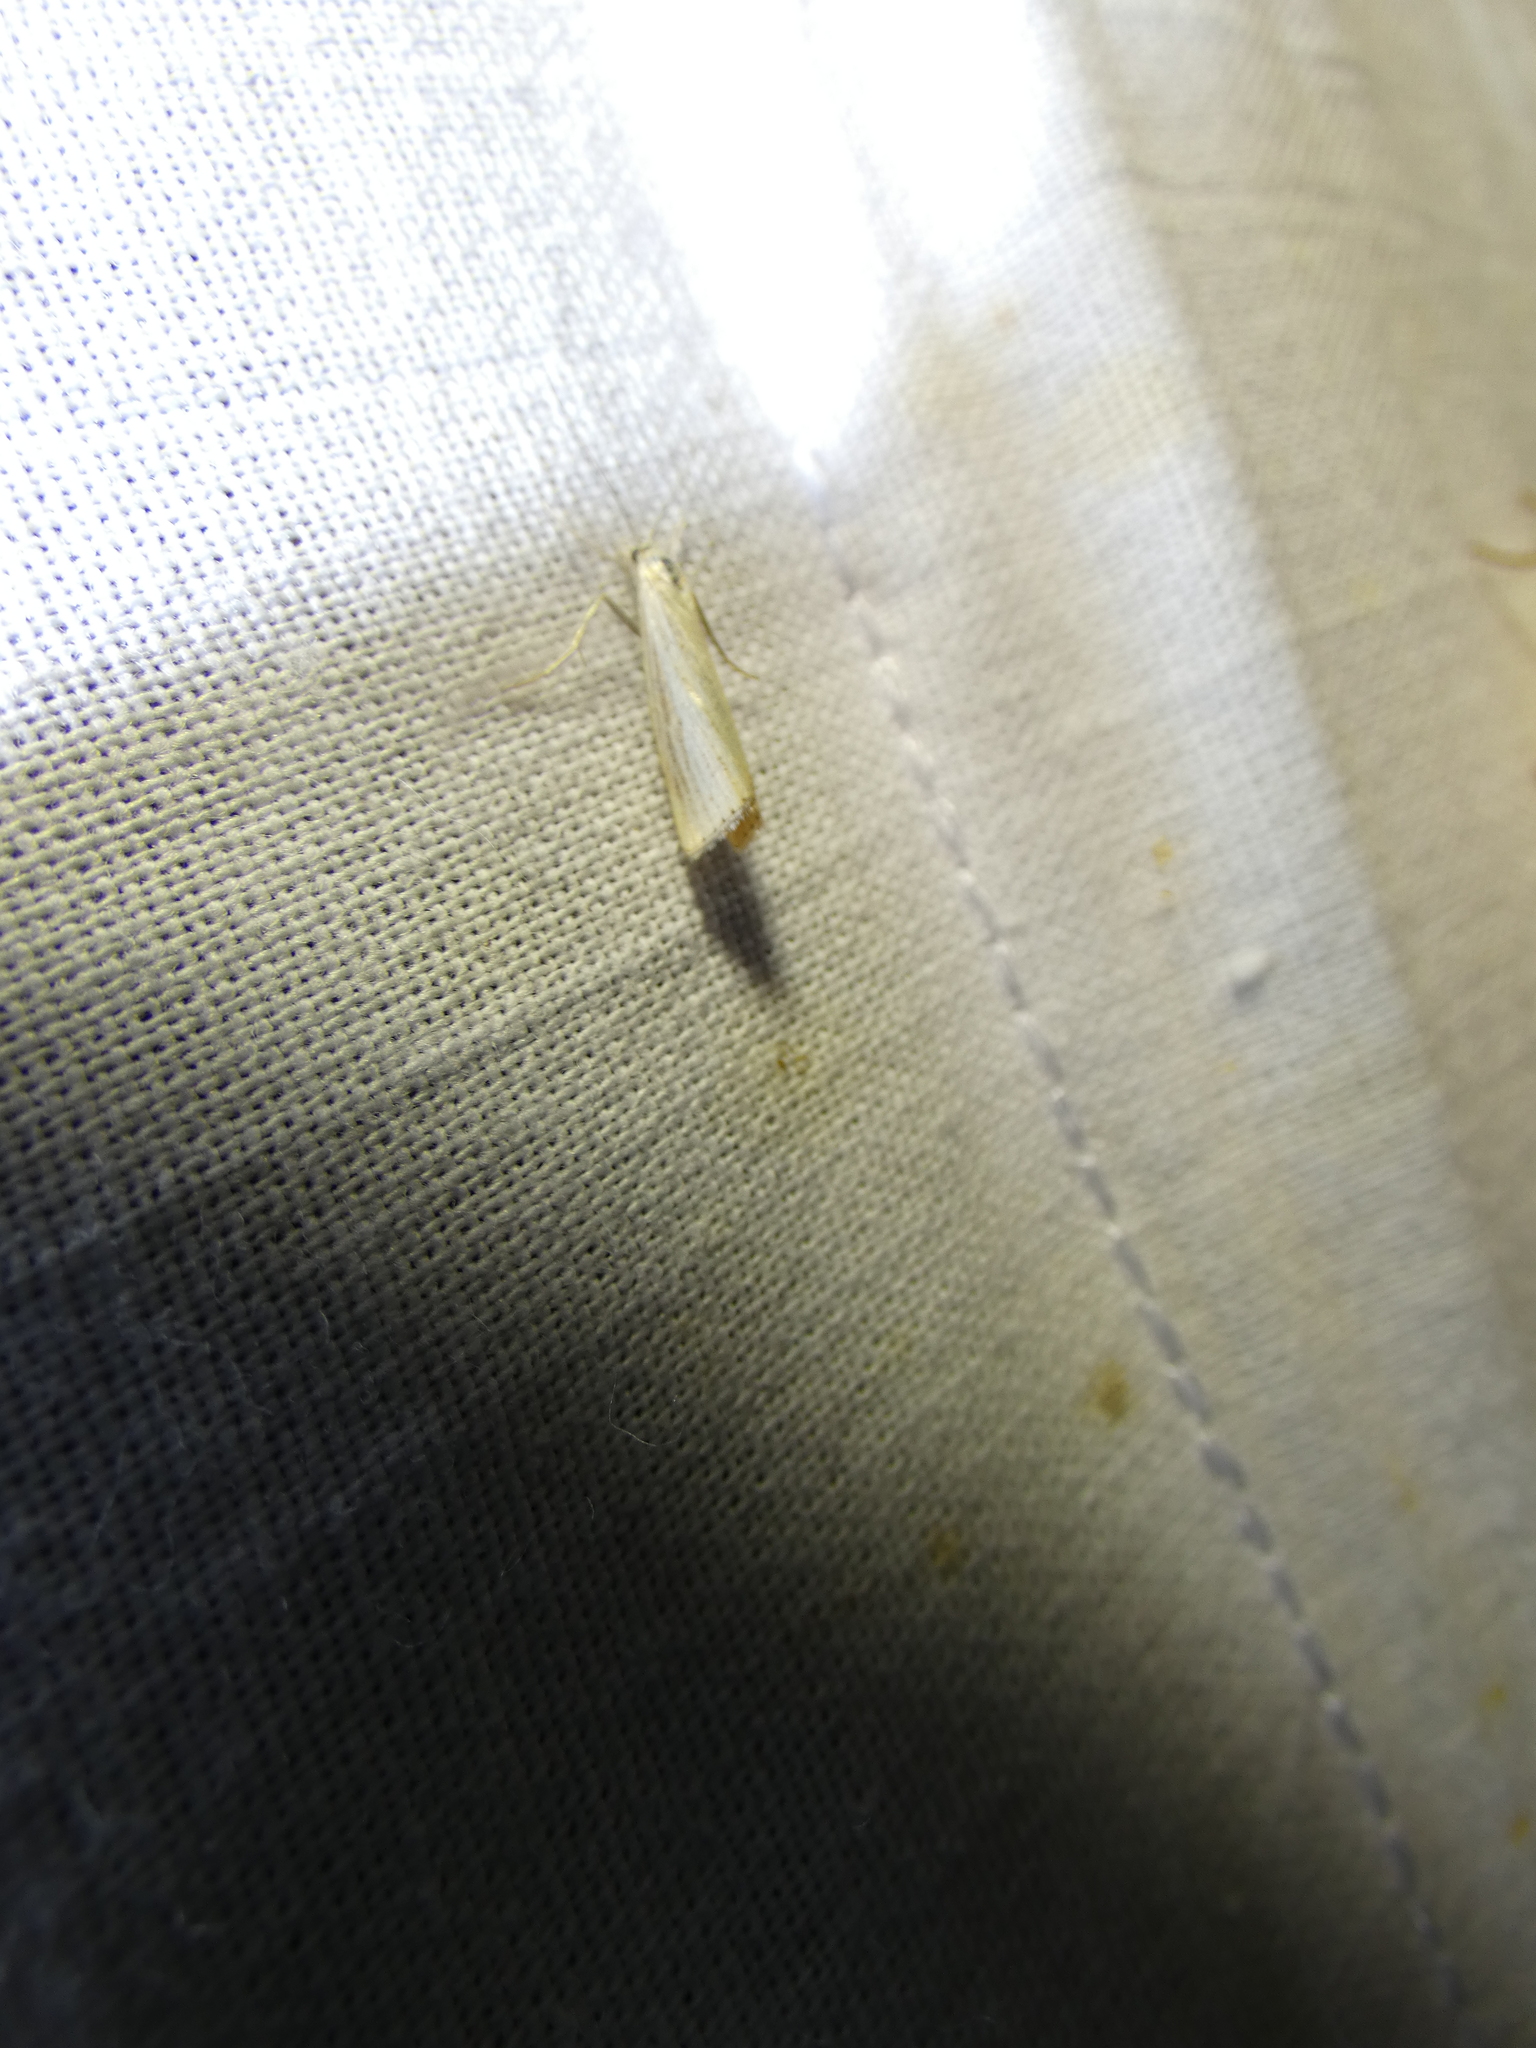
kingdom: Animalia
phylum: Arthropoda
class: Insecta
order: Lepidoptera
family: Crambidae
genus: Agriphila
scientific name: Agriphila straminella
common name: Straw grass-veneer
